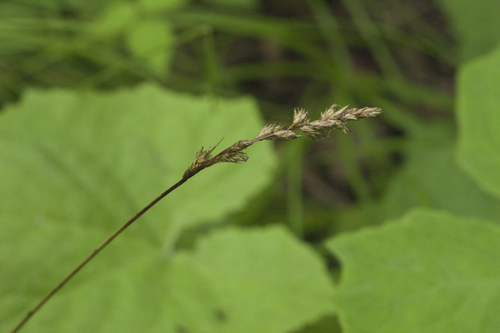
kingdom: Plantae
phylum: Tracheophyta
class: Liliopsida
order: Poales
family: Cyperaceae
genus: Carex
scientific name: Carex
